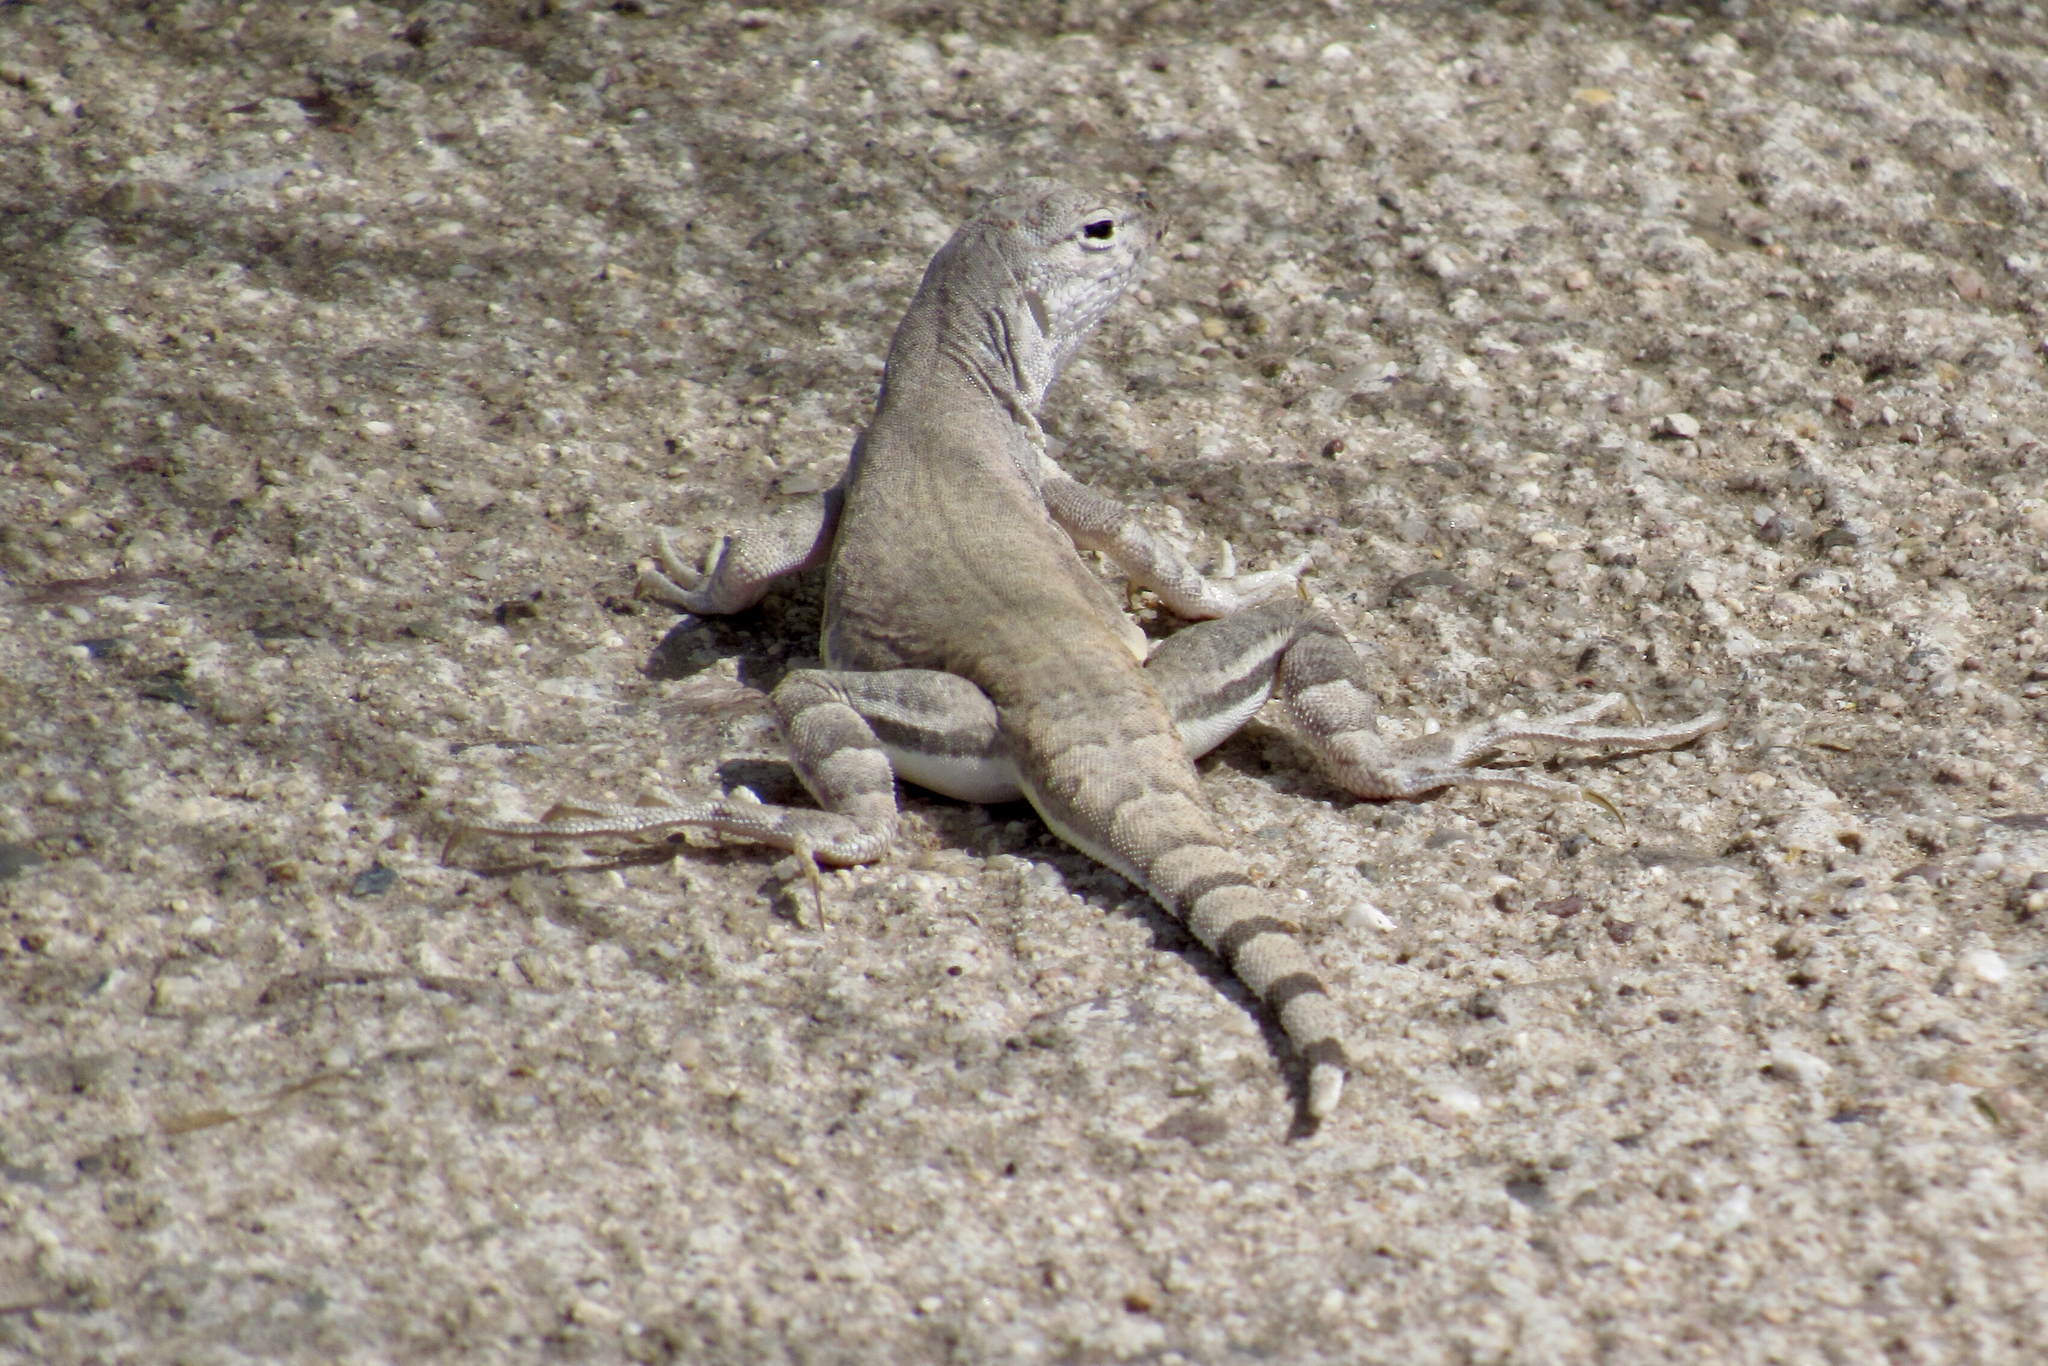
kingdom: Animalia
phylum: Chordata
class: Squamata
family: Phrynosomatidae
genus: Callisaurus
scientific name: Callisaurus draconoides
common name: Zebra-tailed lizard
